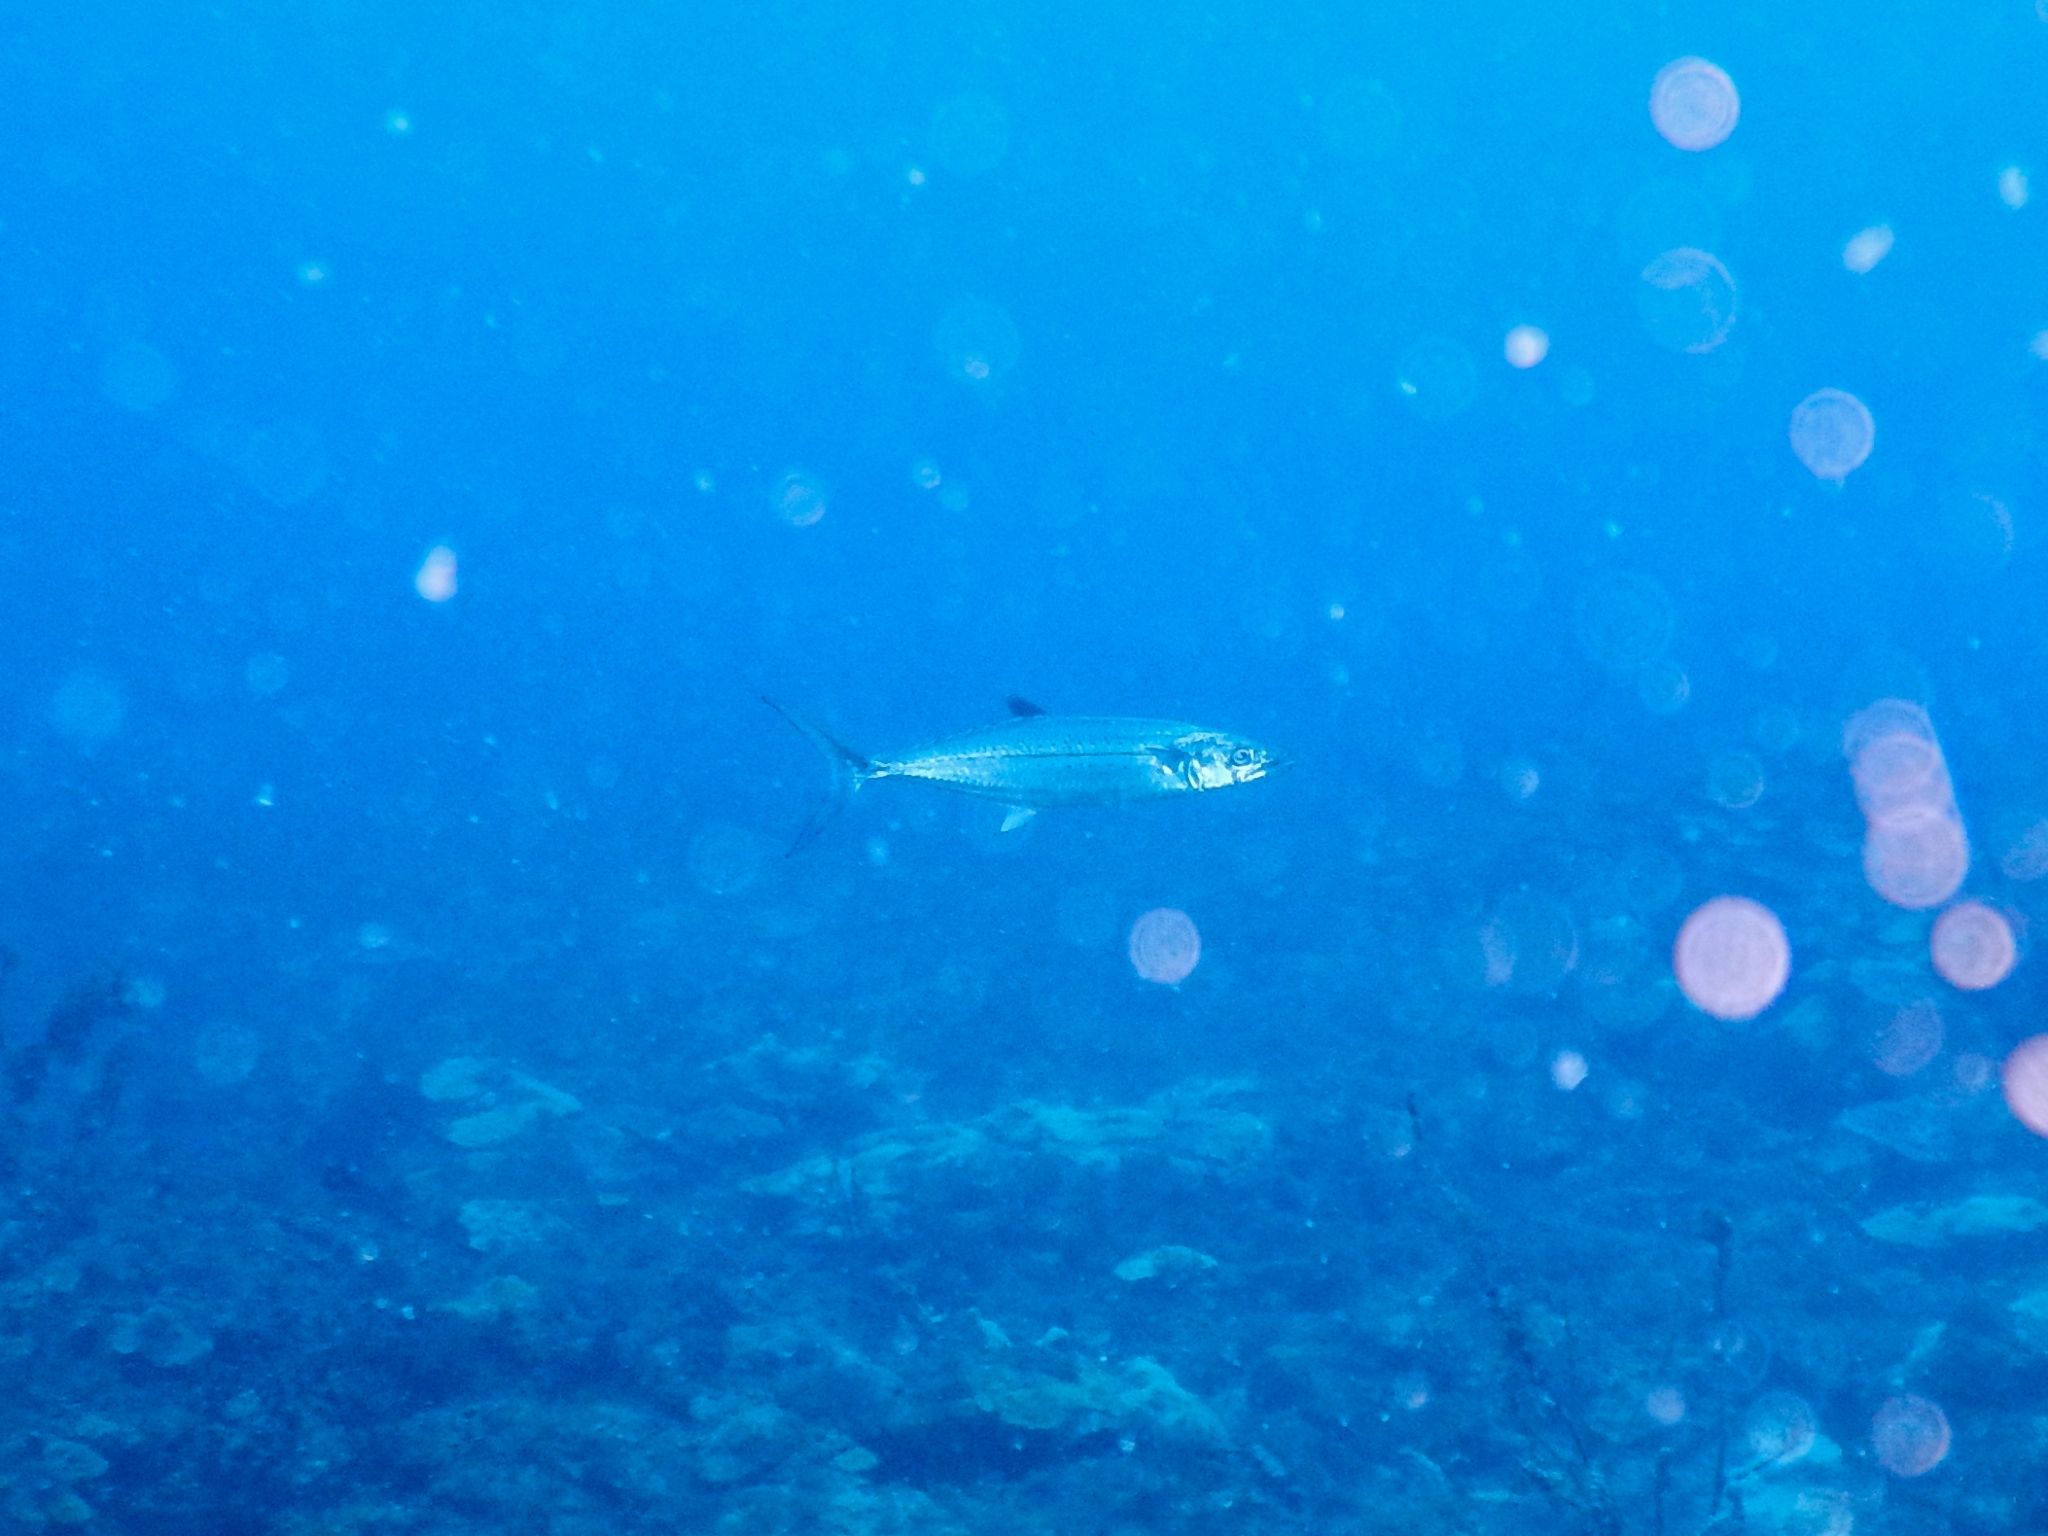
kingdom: Animalia
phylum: Chordata
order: Perciformes
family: Scombridae
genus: Scomberomorus
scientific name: Scomberomorus regalis
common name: Cero
